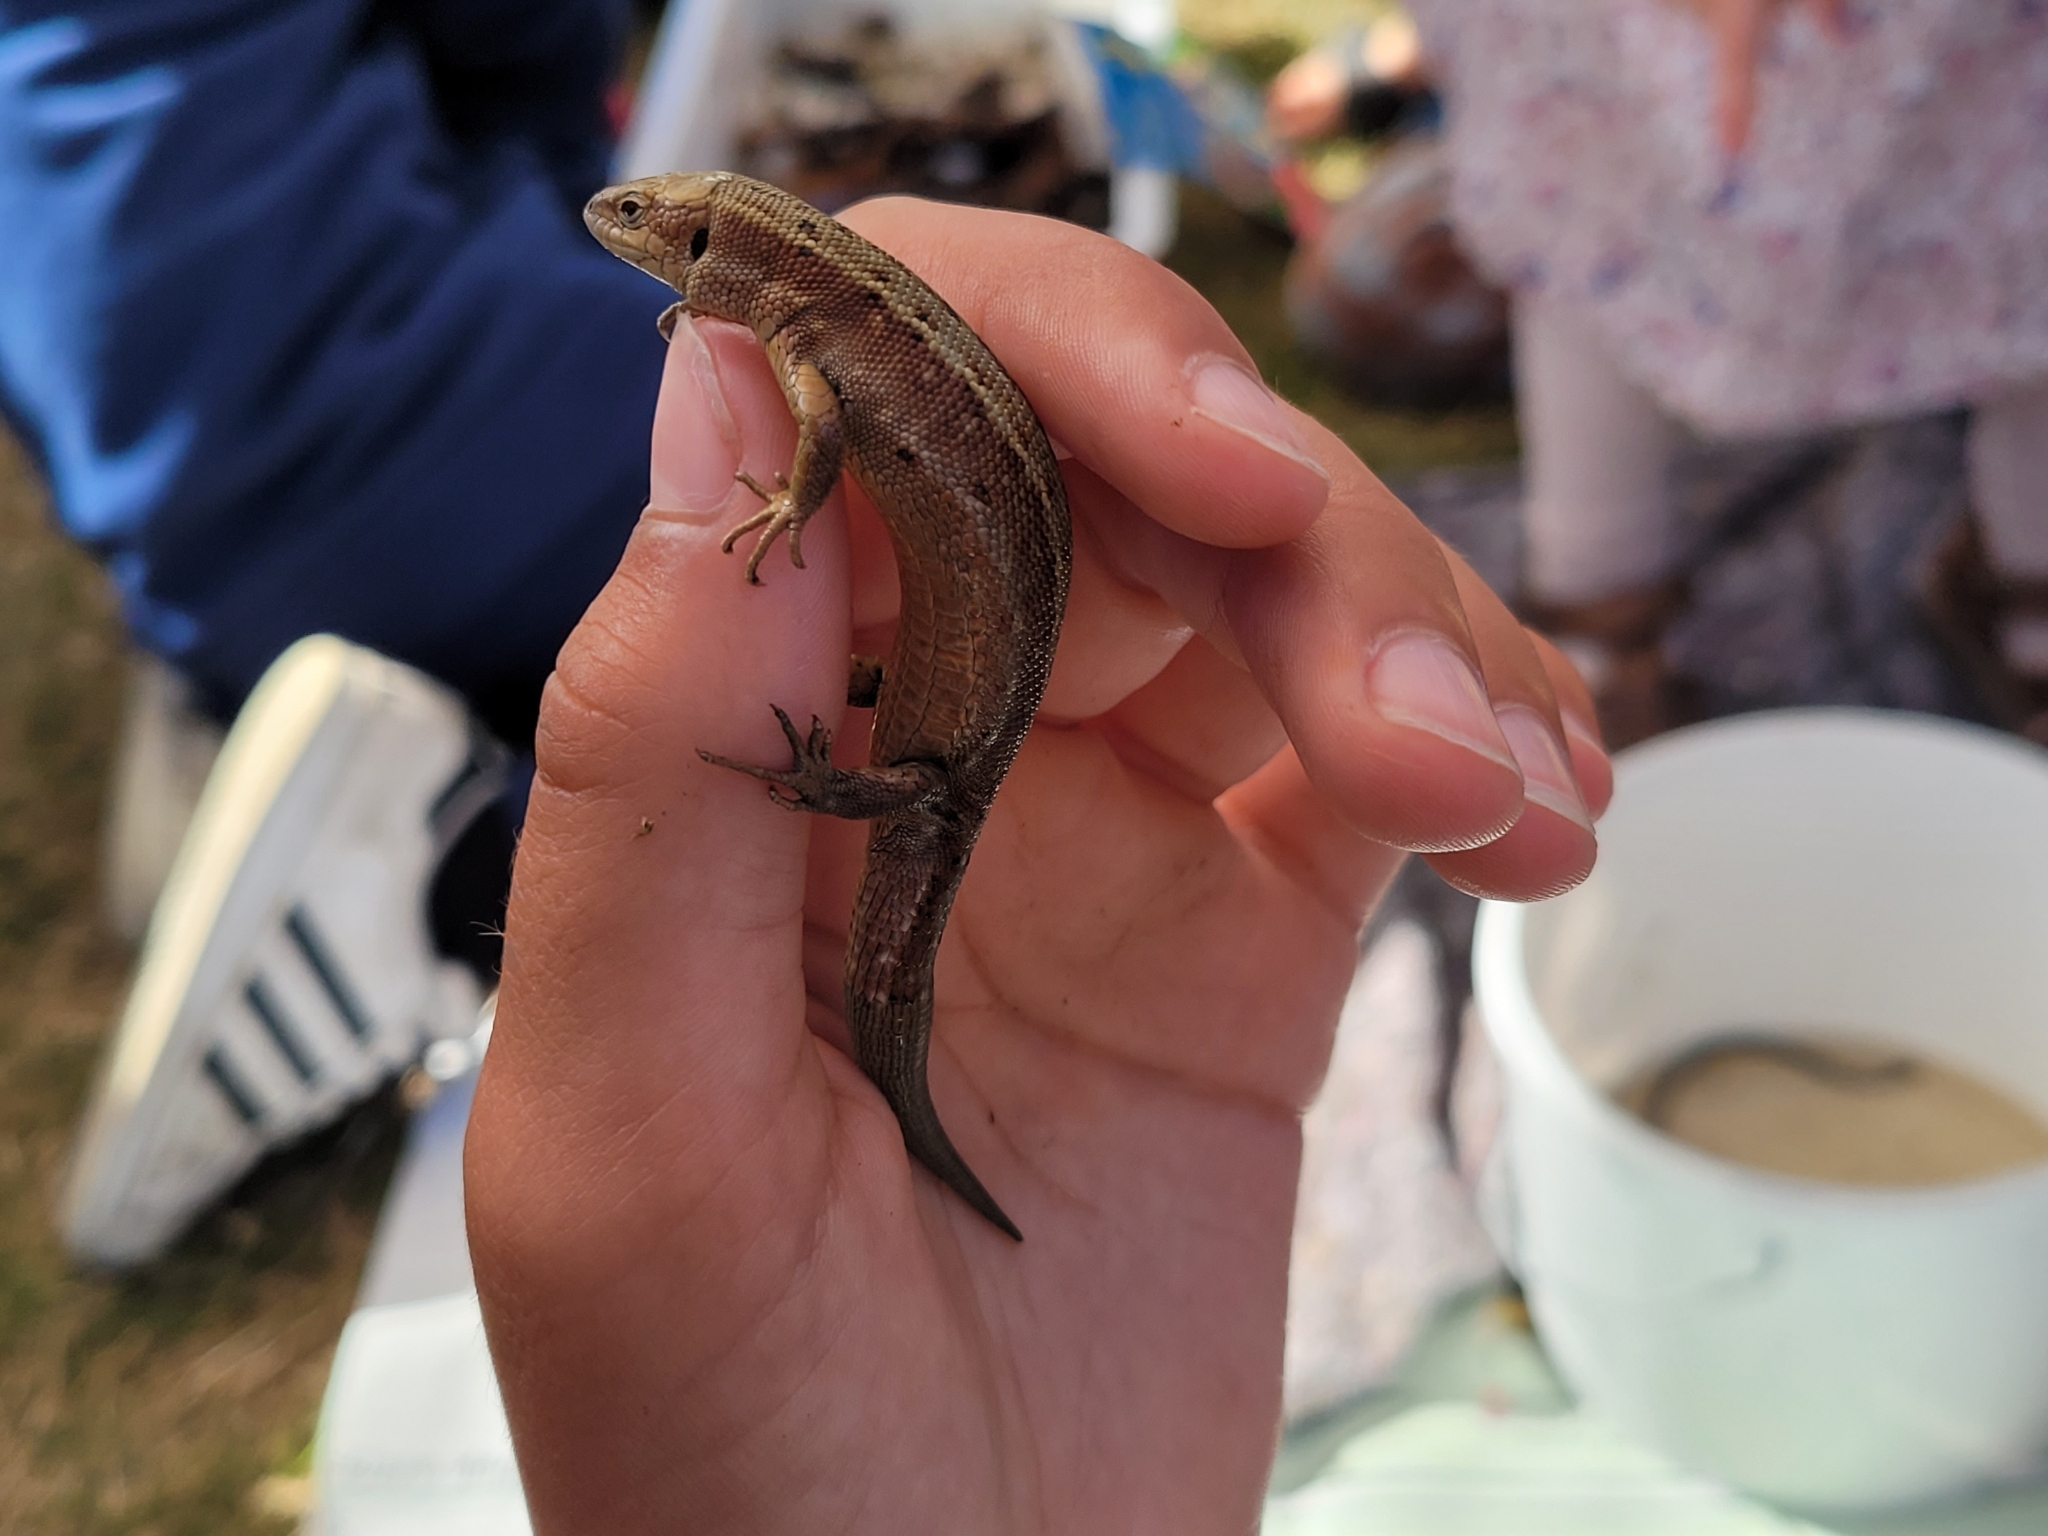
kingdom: Animalia
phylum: Chordata
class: Squamata
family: Lacertidae
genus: Zootoca
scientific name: Zootoca vivipara
